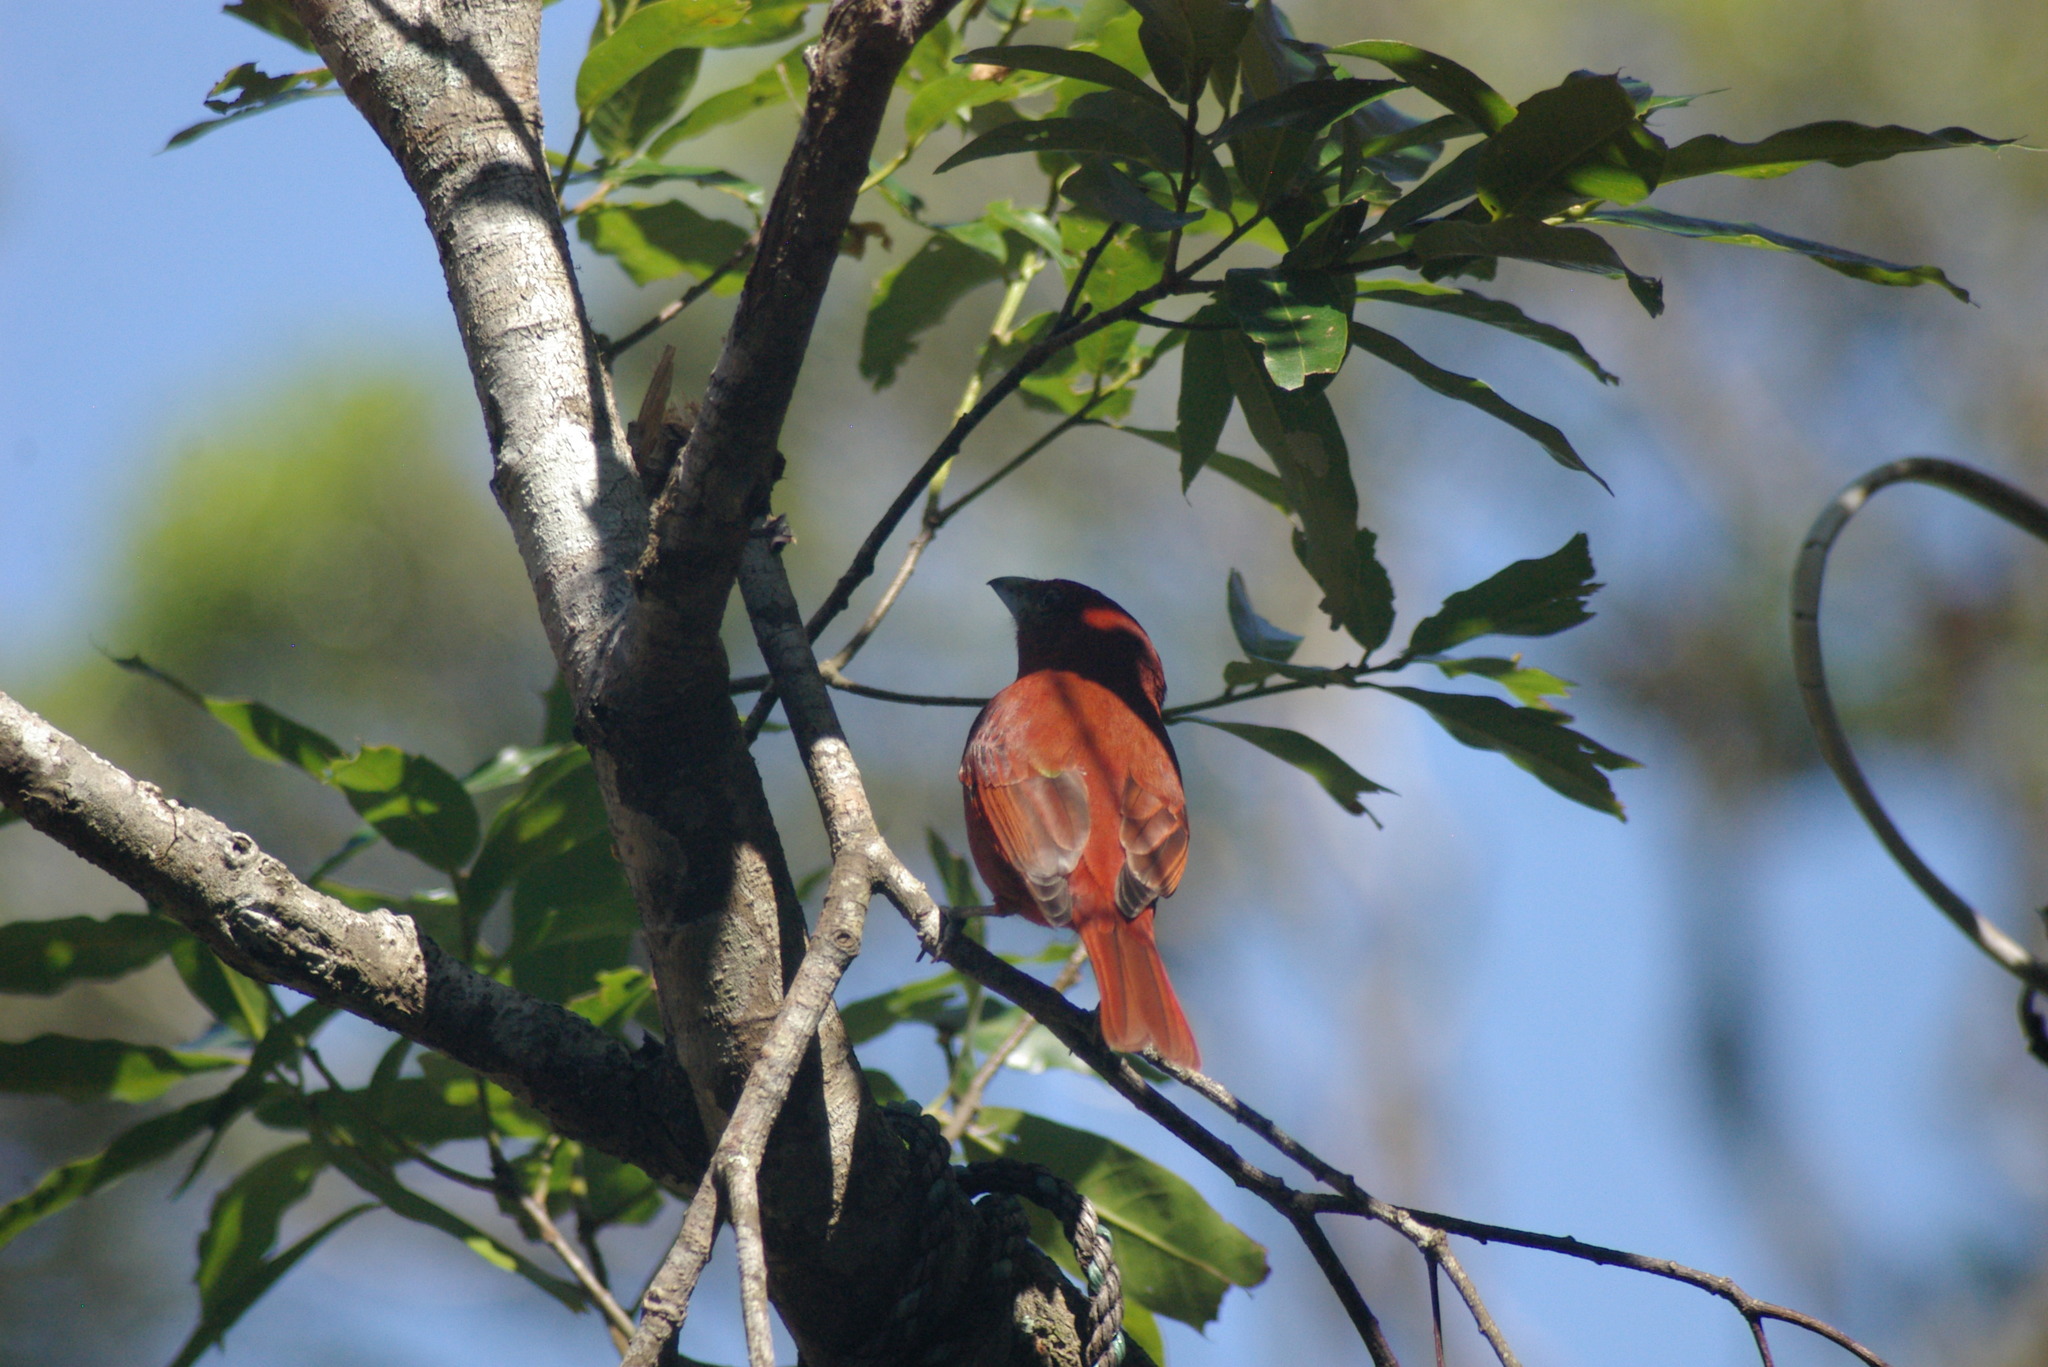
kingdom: Animalia
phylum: Chordata
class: Aves
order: Passeriformes
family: Cardinalidae
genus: Piranga
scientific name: Piranga flava
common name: Red tanager
